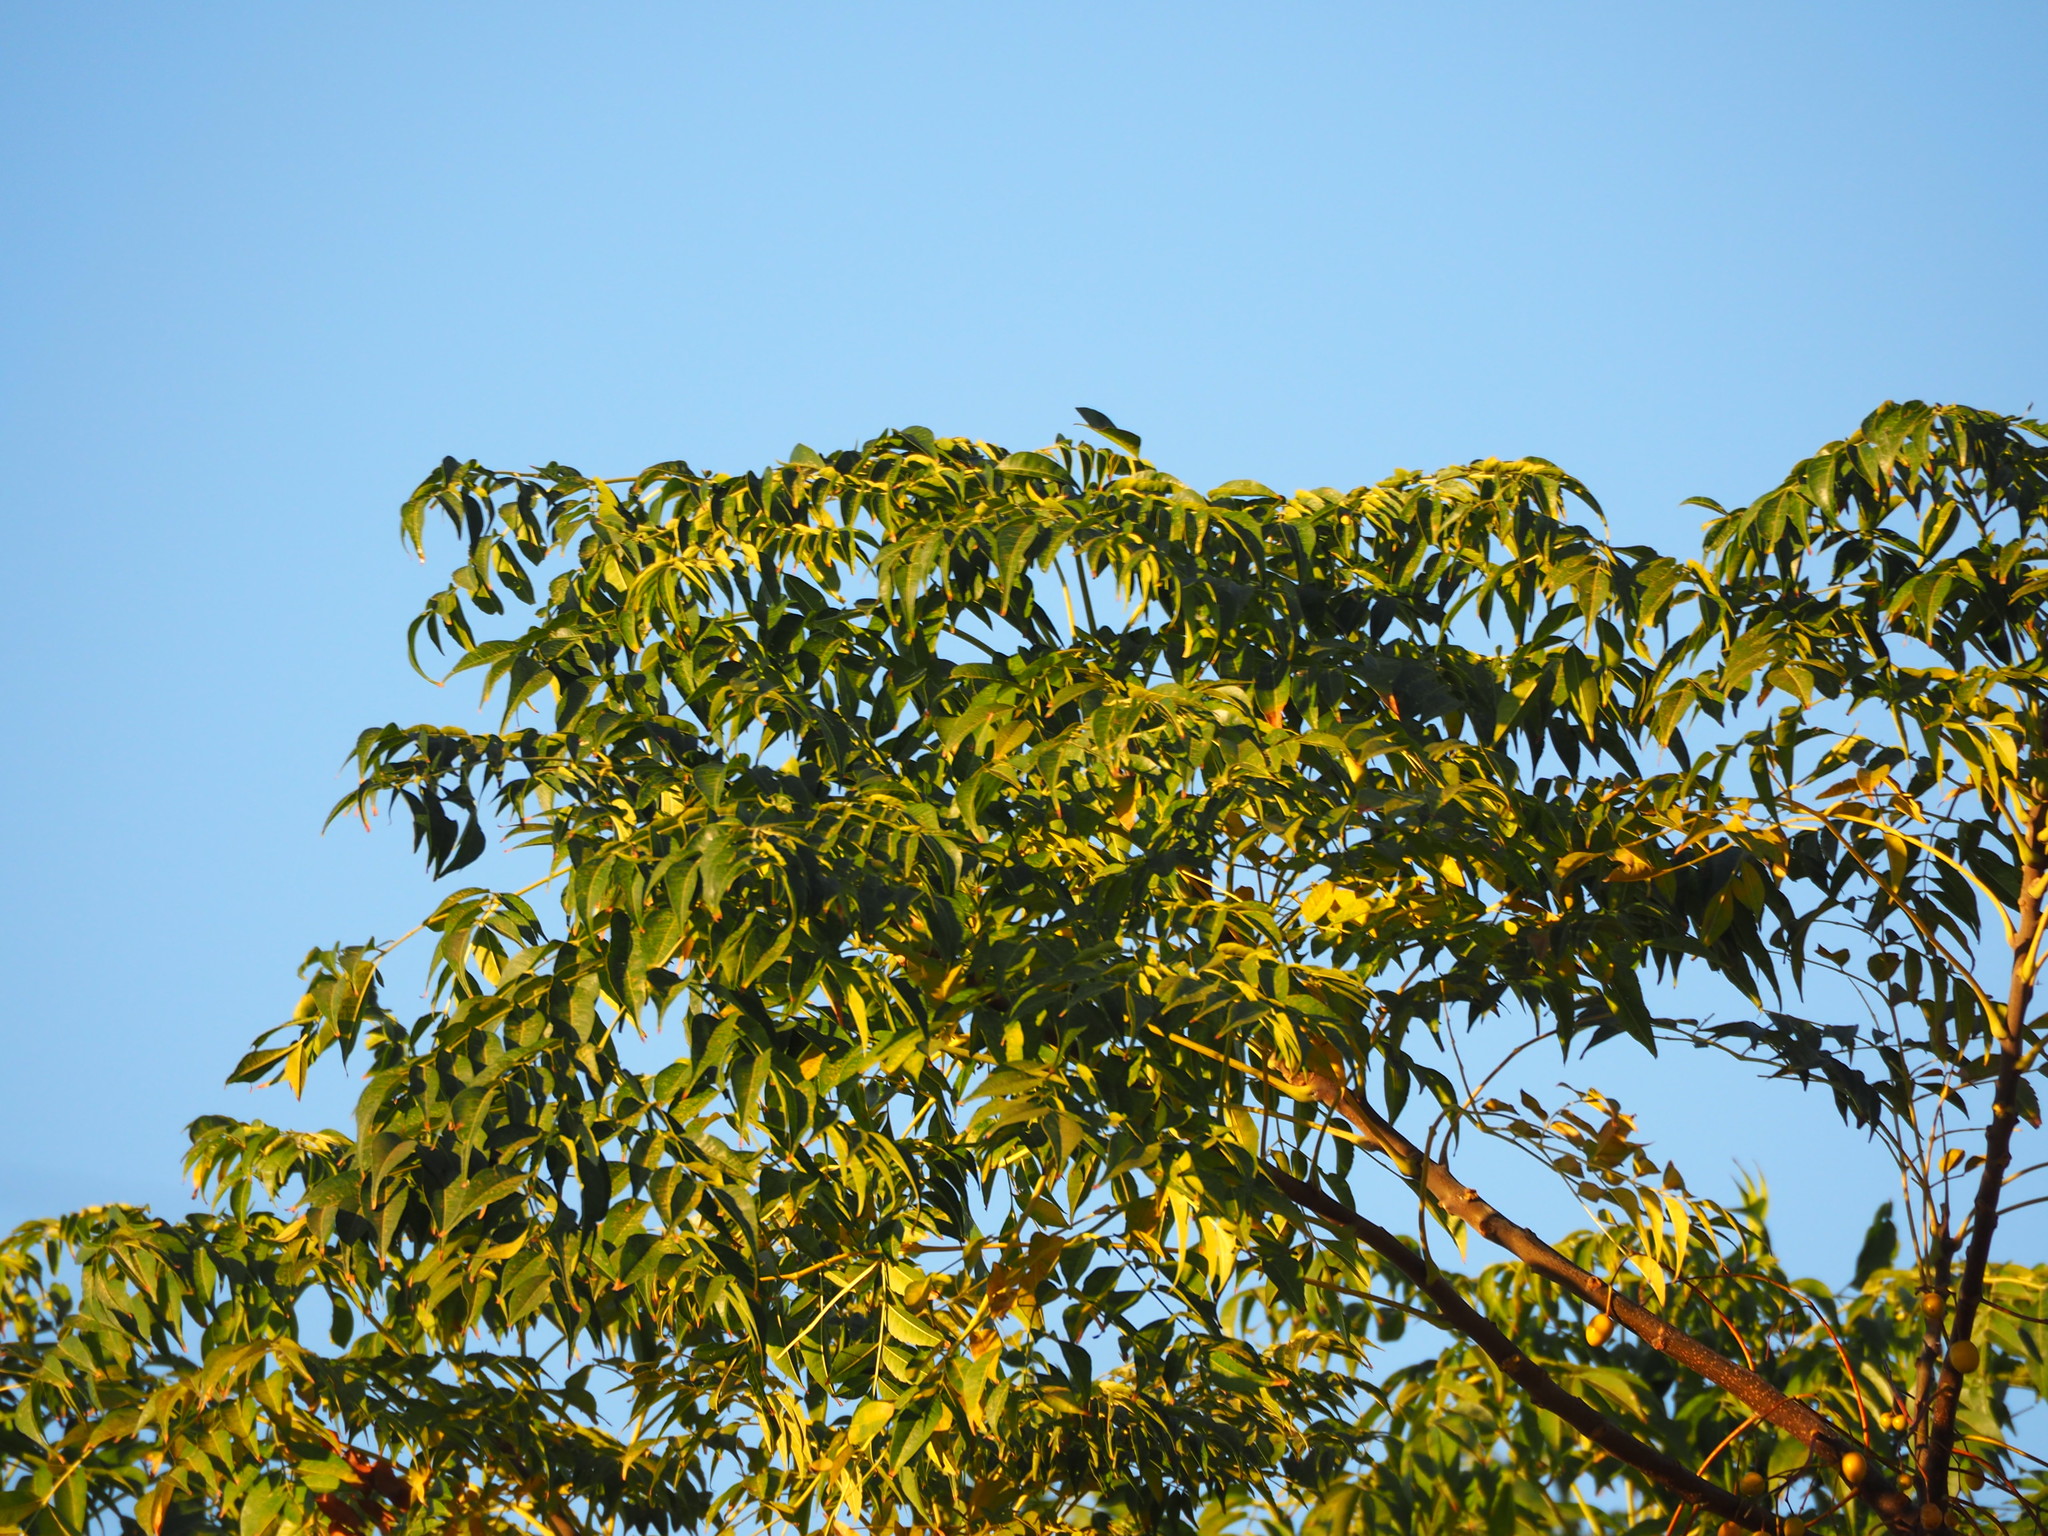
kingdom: Plantae
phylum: Tracheophyta
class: Magnoliopsida
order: Sapindales
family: Meliaceae
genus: Melia
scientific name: Melia azedarach
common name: Chinaberrytree
